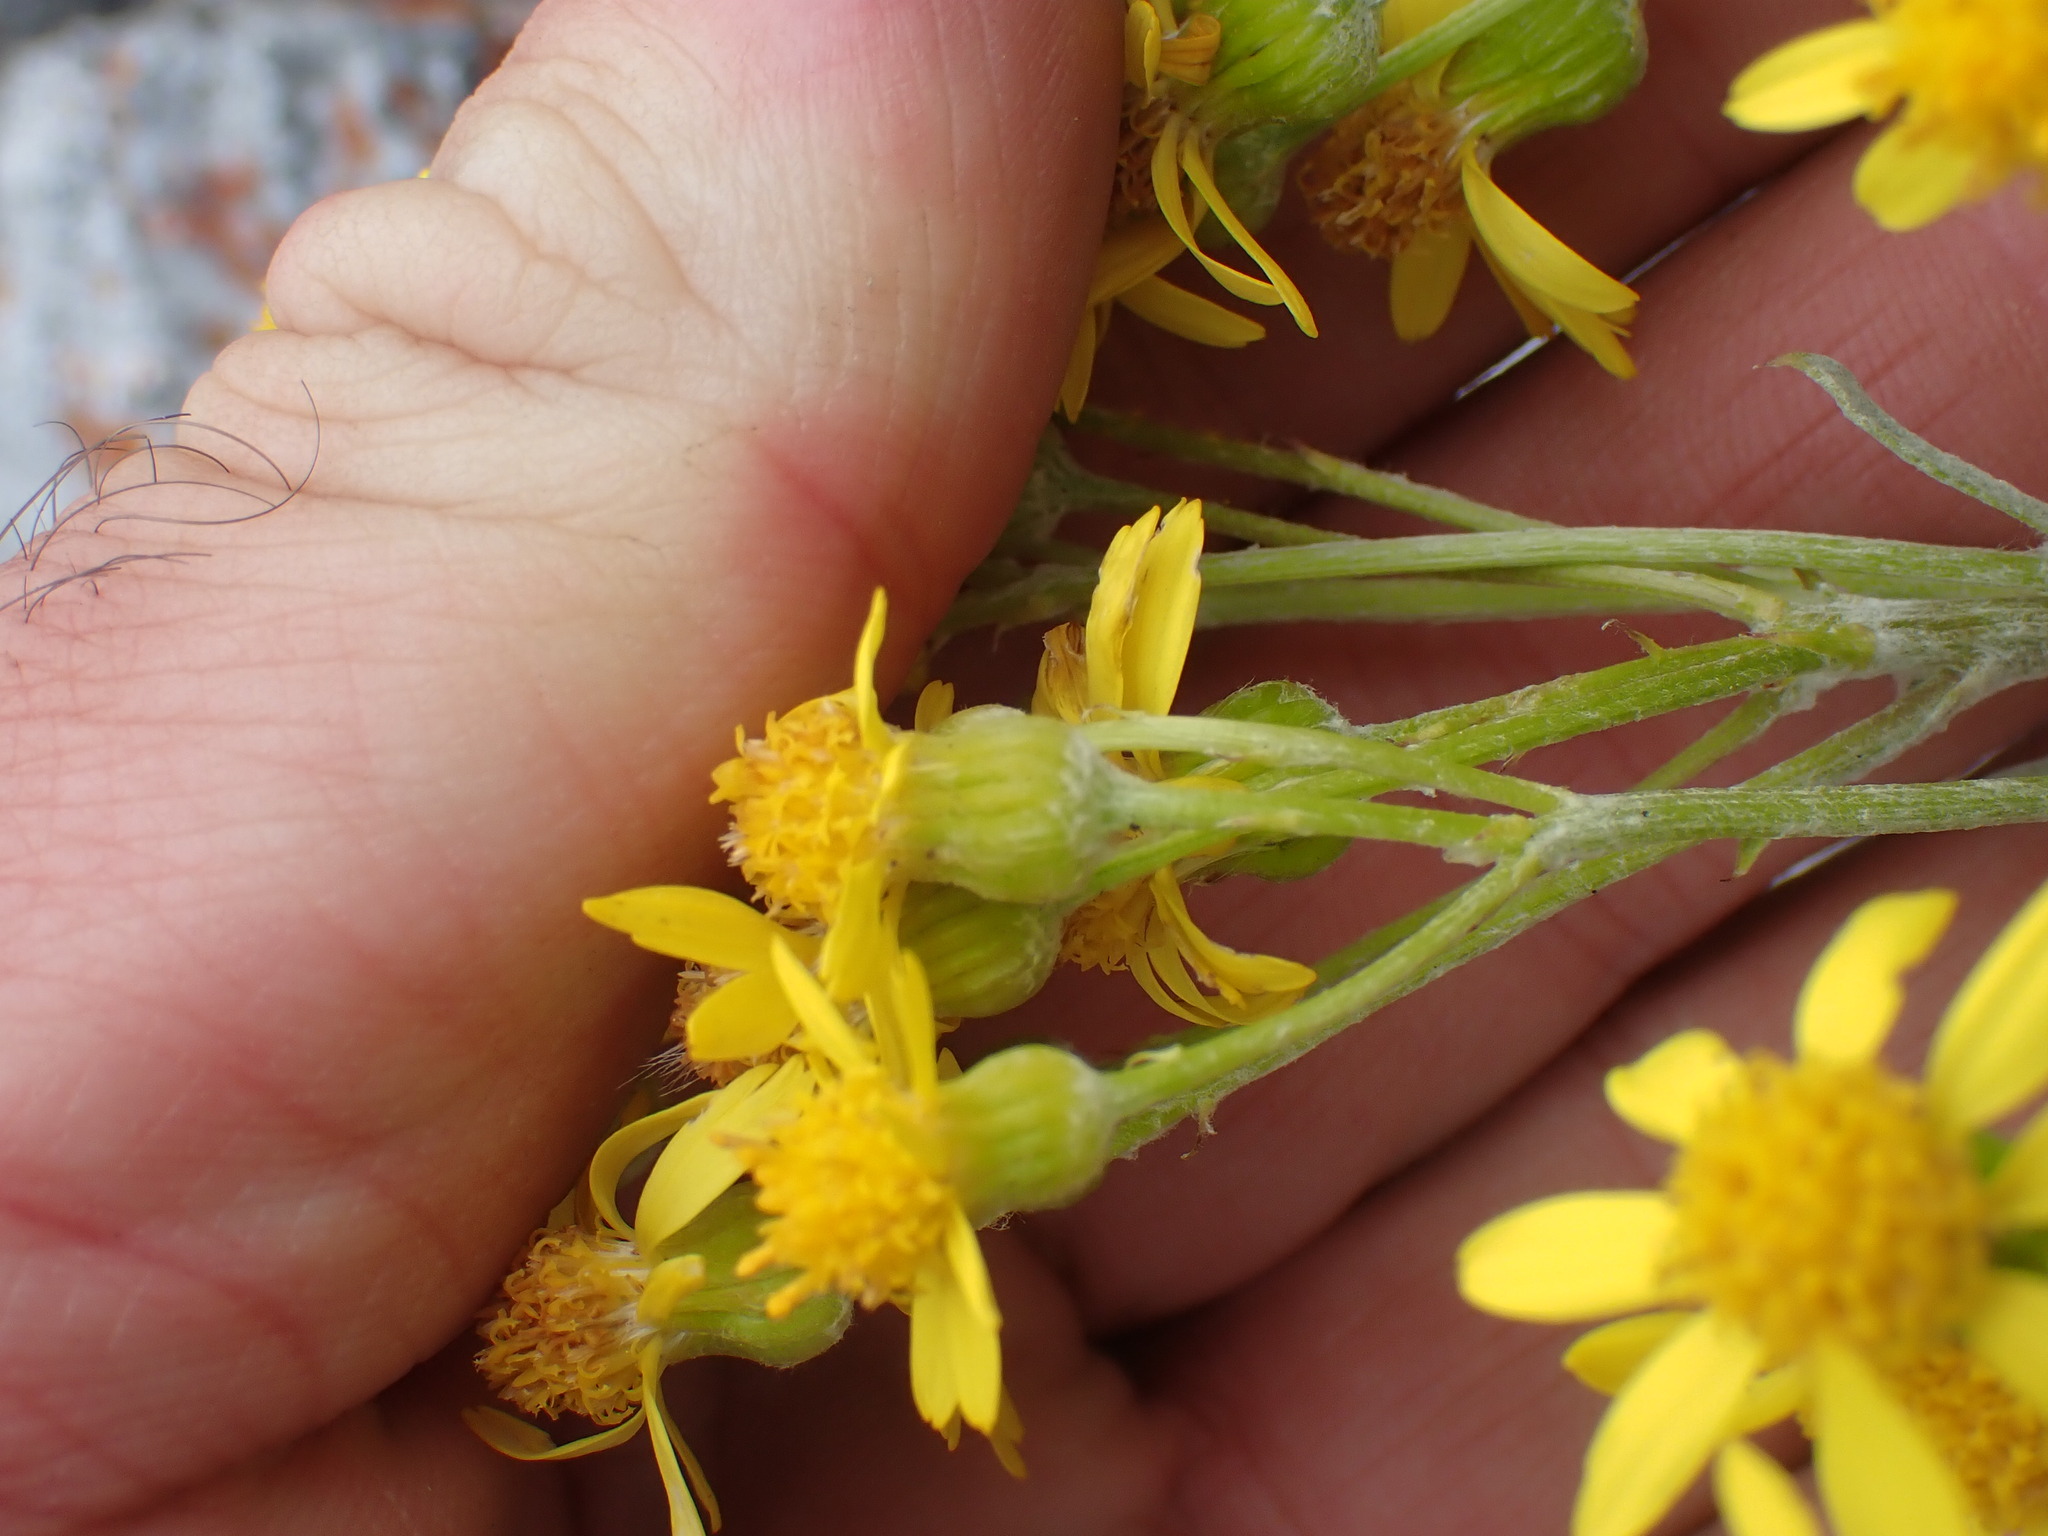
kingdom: Plantae
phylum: Tracheophyta
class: Magnoliopsida
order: Asterales
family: Asteraceae
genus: Packera
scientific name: Packera cana
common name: Woolly groundsel
